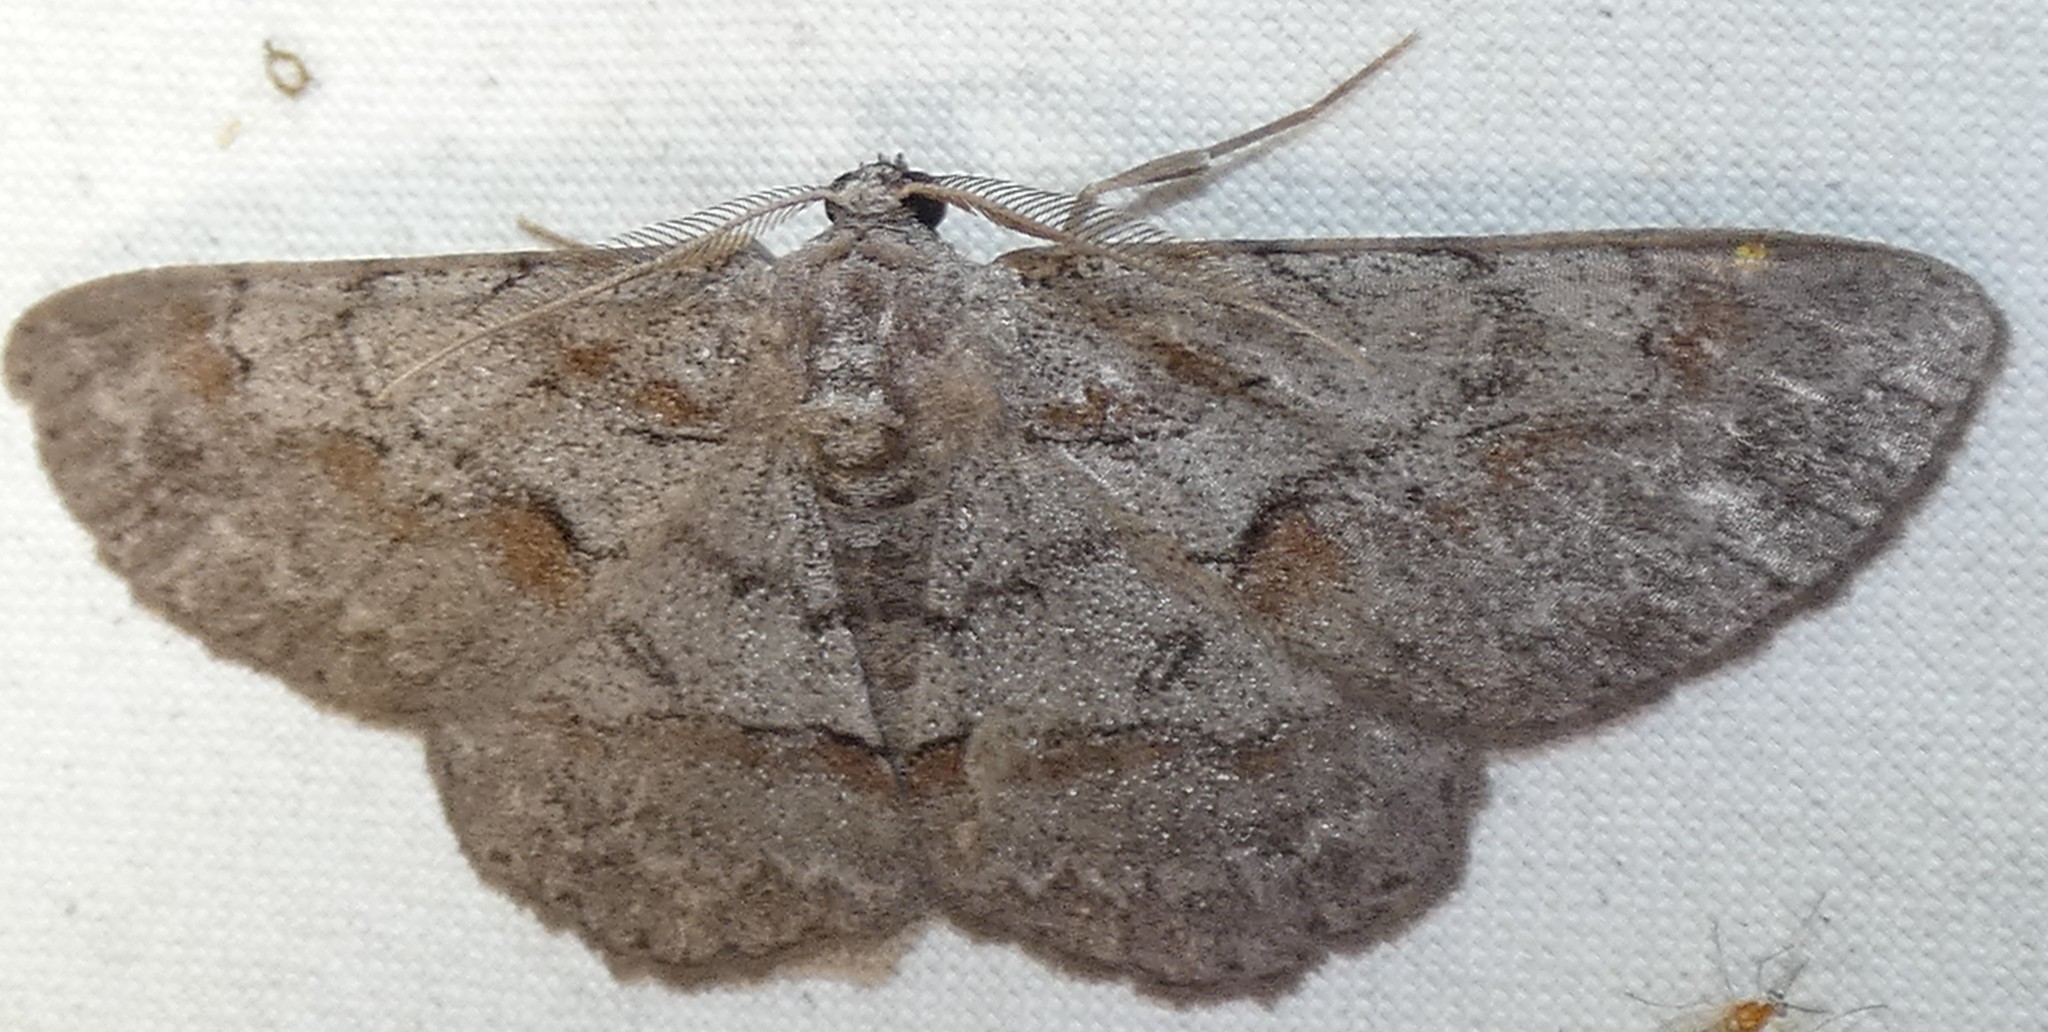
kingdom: Animalia
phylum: Arthropoda
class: Insecta
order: Lepidoptera
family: Geometridae
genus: Iridopsis
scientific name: Iridopsis vellivolata
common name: Large purplish gray
